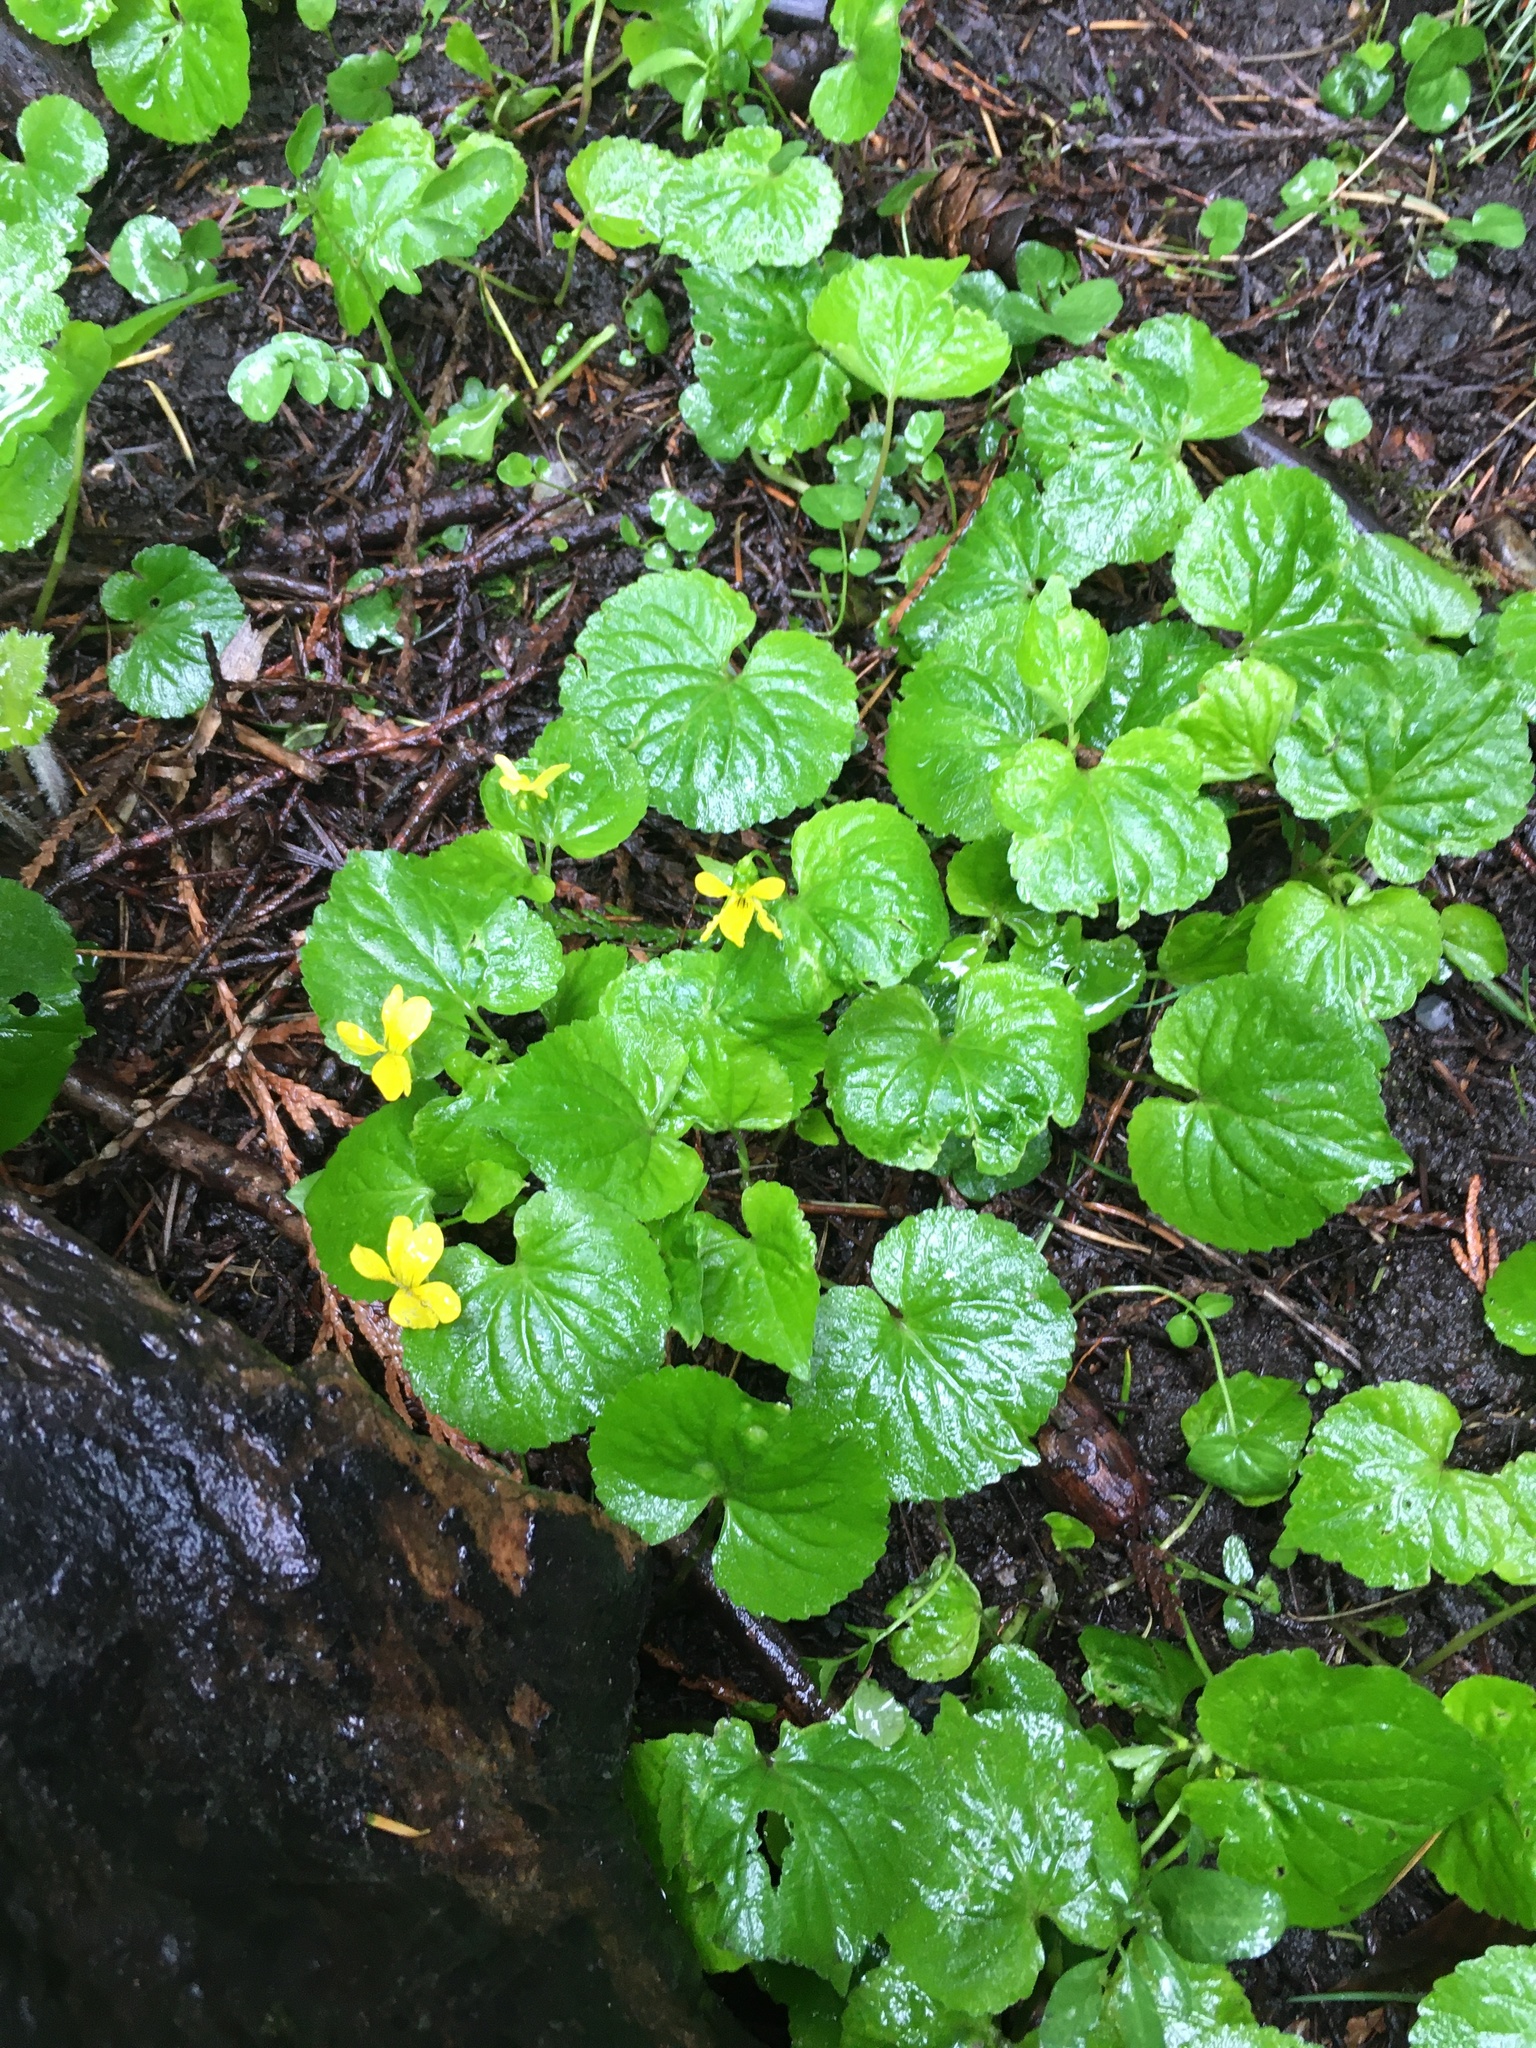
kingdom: Plantae
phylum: Tracheophyta
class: Magnoliopsida
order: Malpighiales
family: Violaceae
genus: Viola
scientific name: Viola glabella
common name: Stream violet
